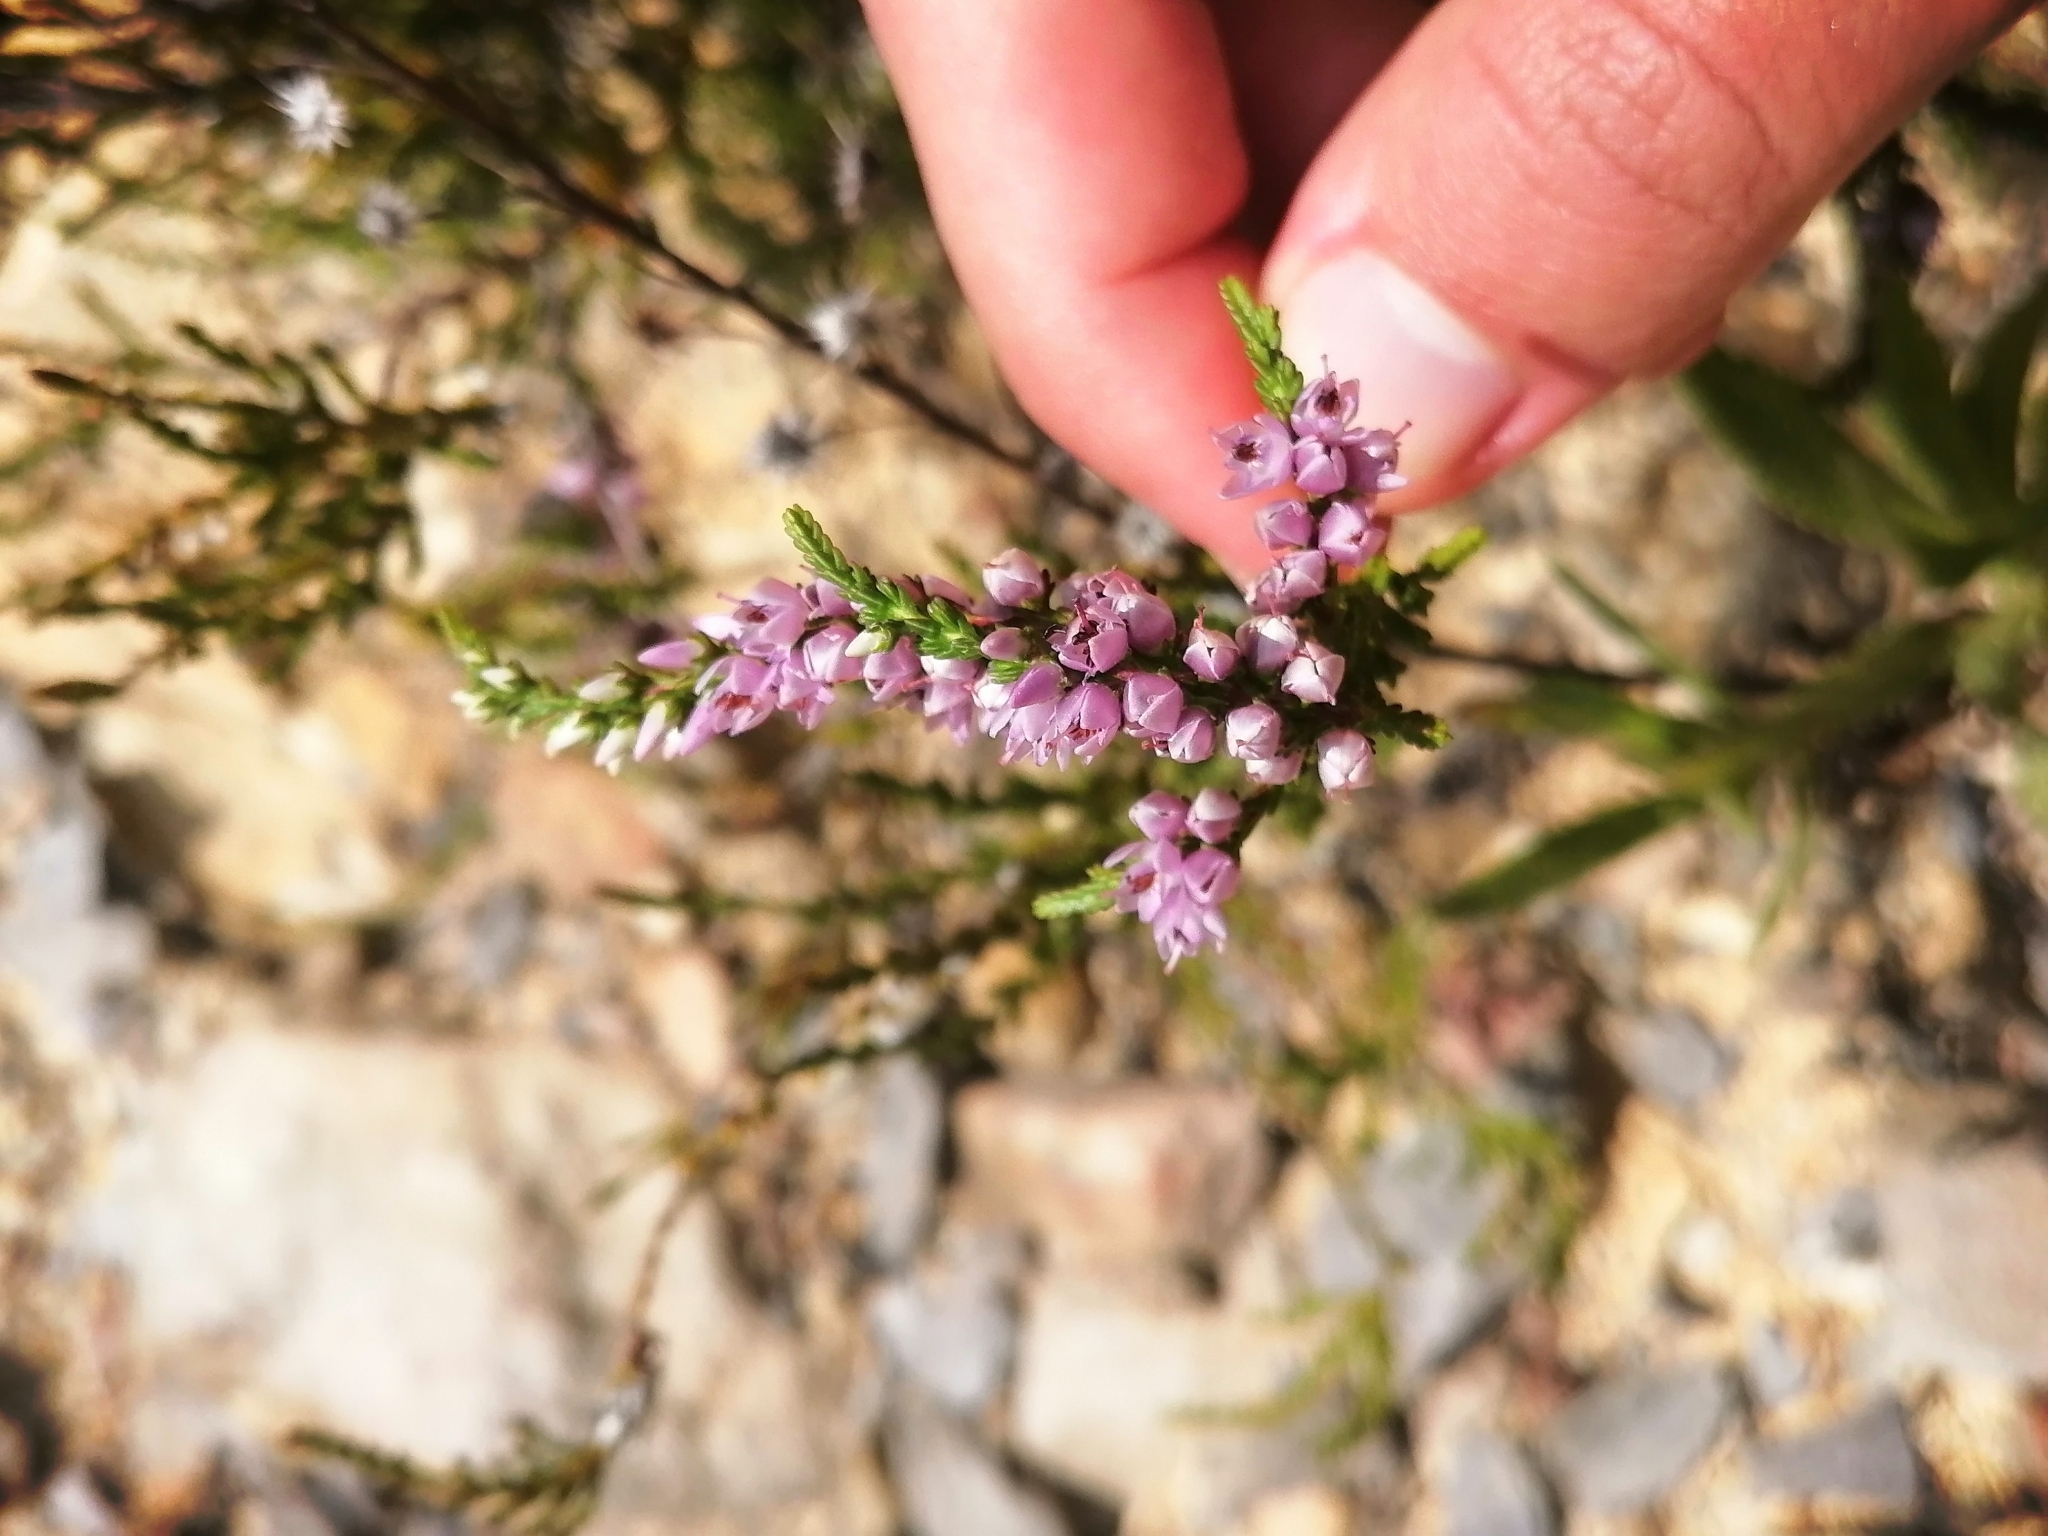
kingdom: Plantae
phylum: Tracheophyta
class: Magnoliopsida
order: Ericales
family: Ericaceae
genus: Calluna
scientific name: Calluna vulgaris
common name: Heather
